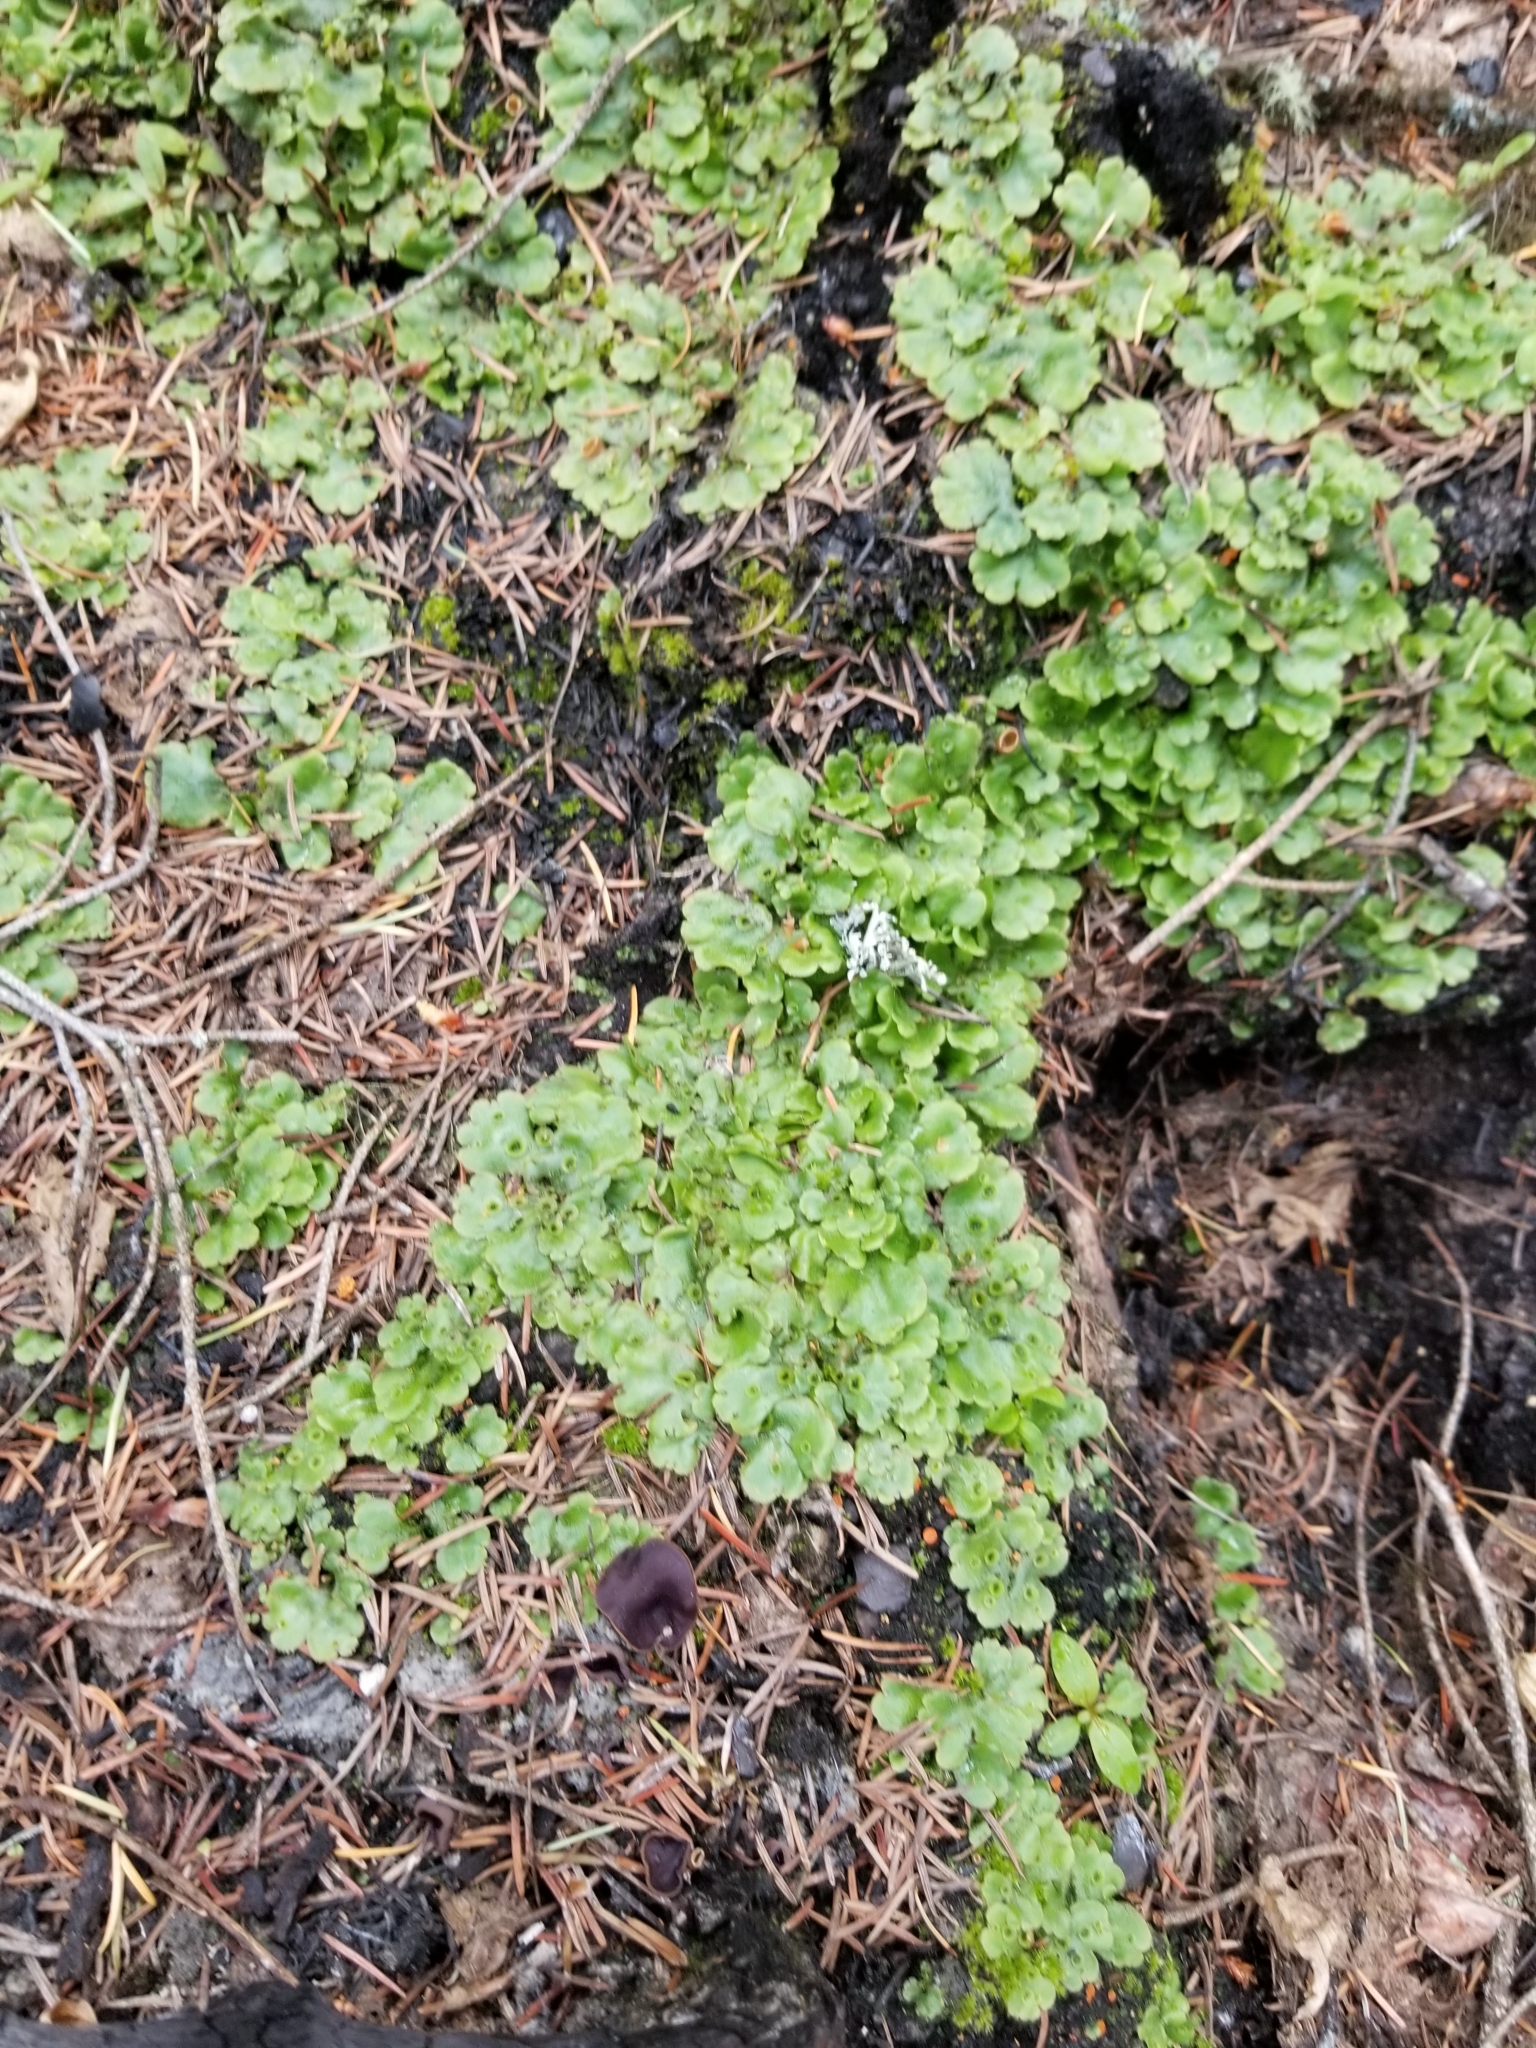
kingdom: Plantae
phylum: Marchantiophyta
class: Marchantiopsida
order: Marchantiales
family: Marchantiaceae
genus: Marchantia
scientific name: Marchantia polymorpha
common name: Common liverwort
